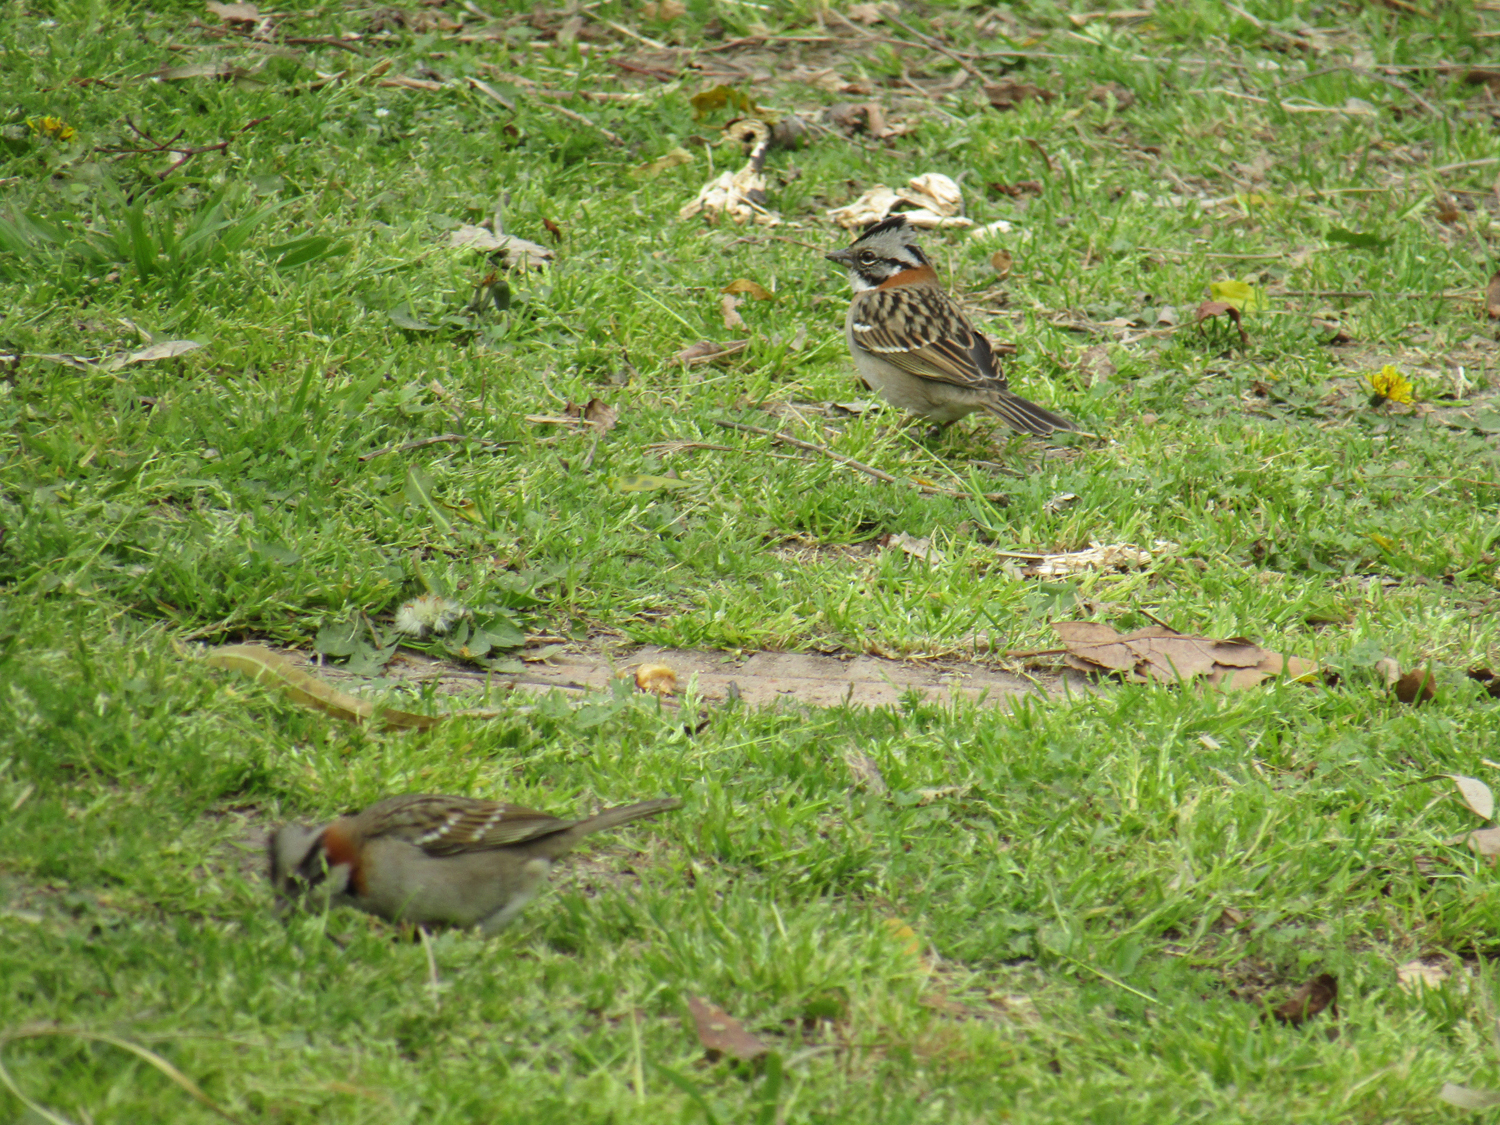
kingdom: Animalia
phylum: Chordata
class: Aves
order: Passeriformes
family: Passerellidae
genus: Zonotrichia
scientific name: Zonotrichia capensis
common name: Rufous-collared sparrow
